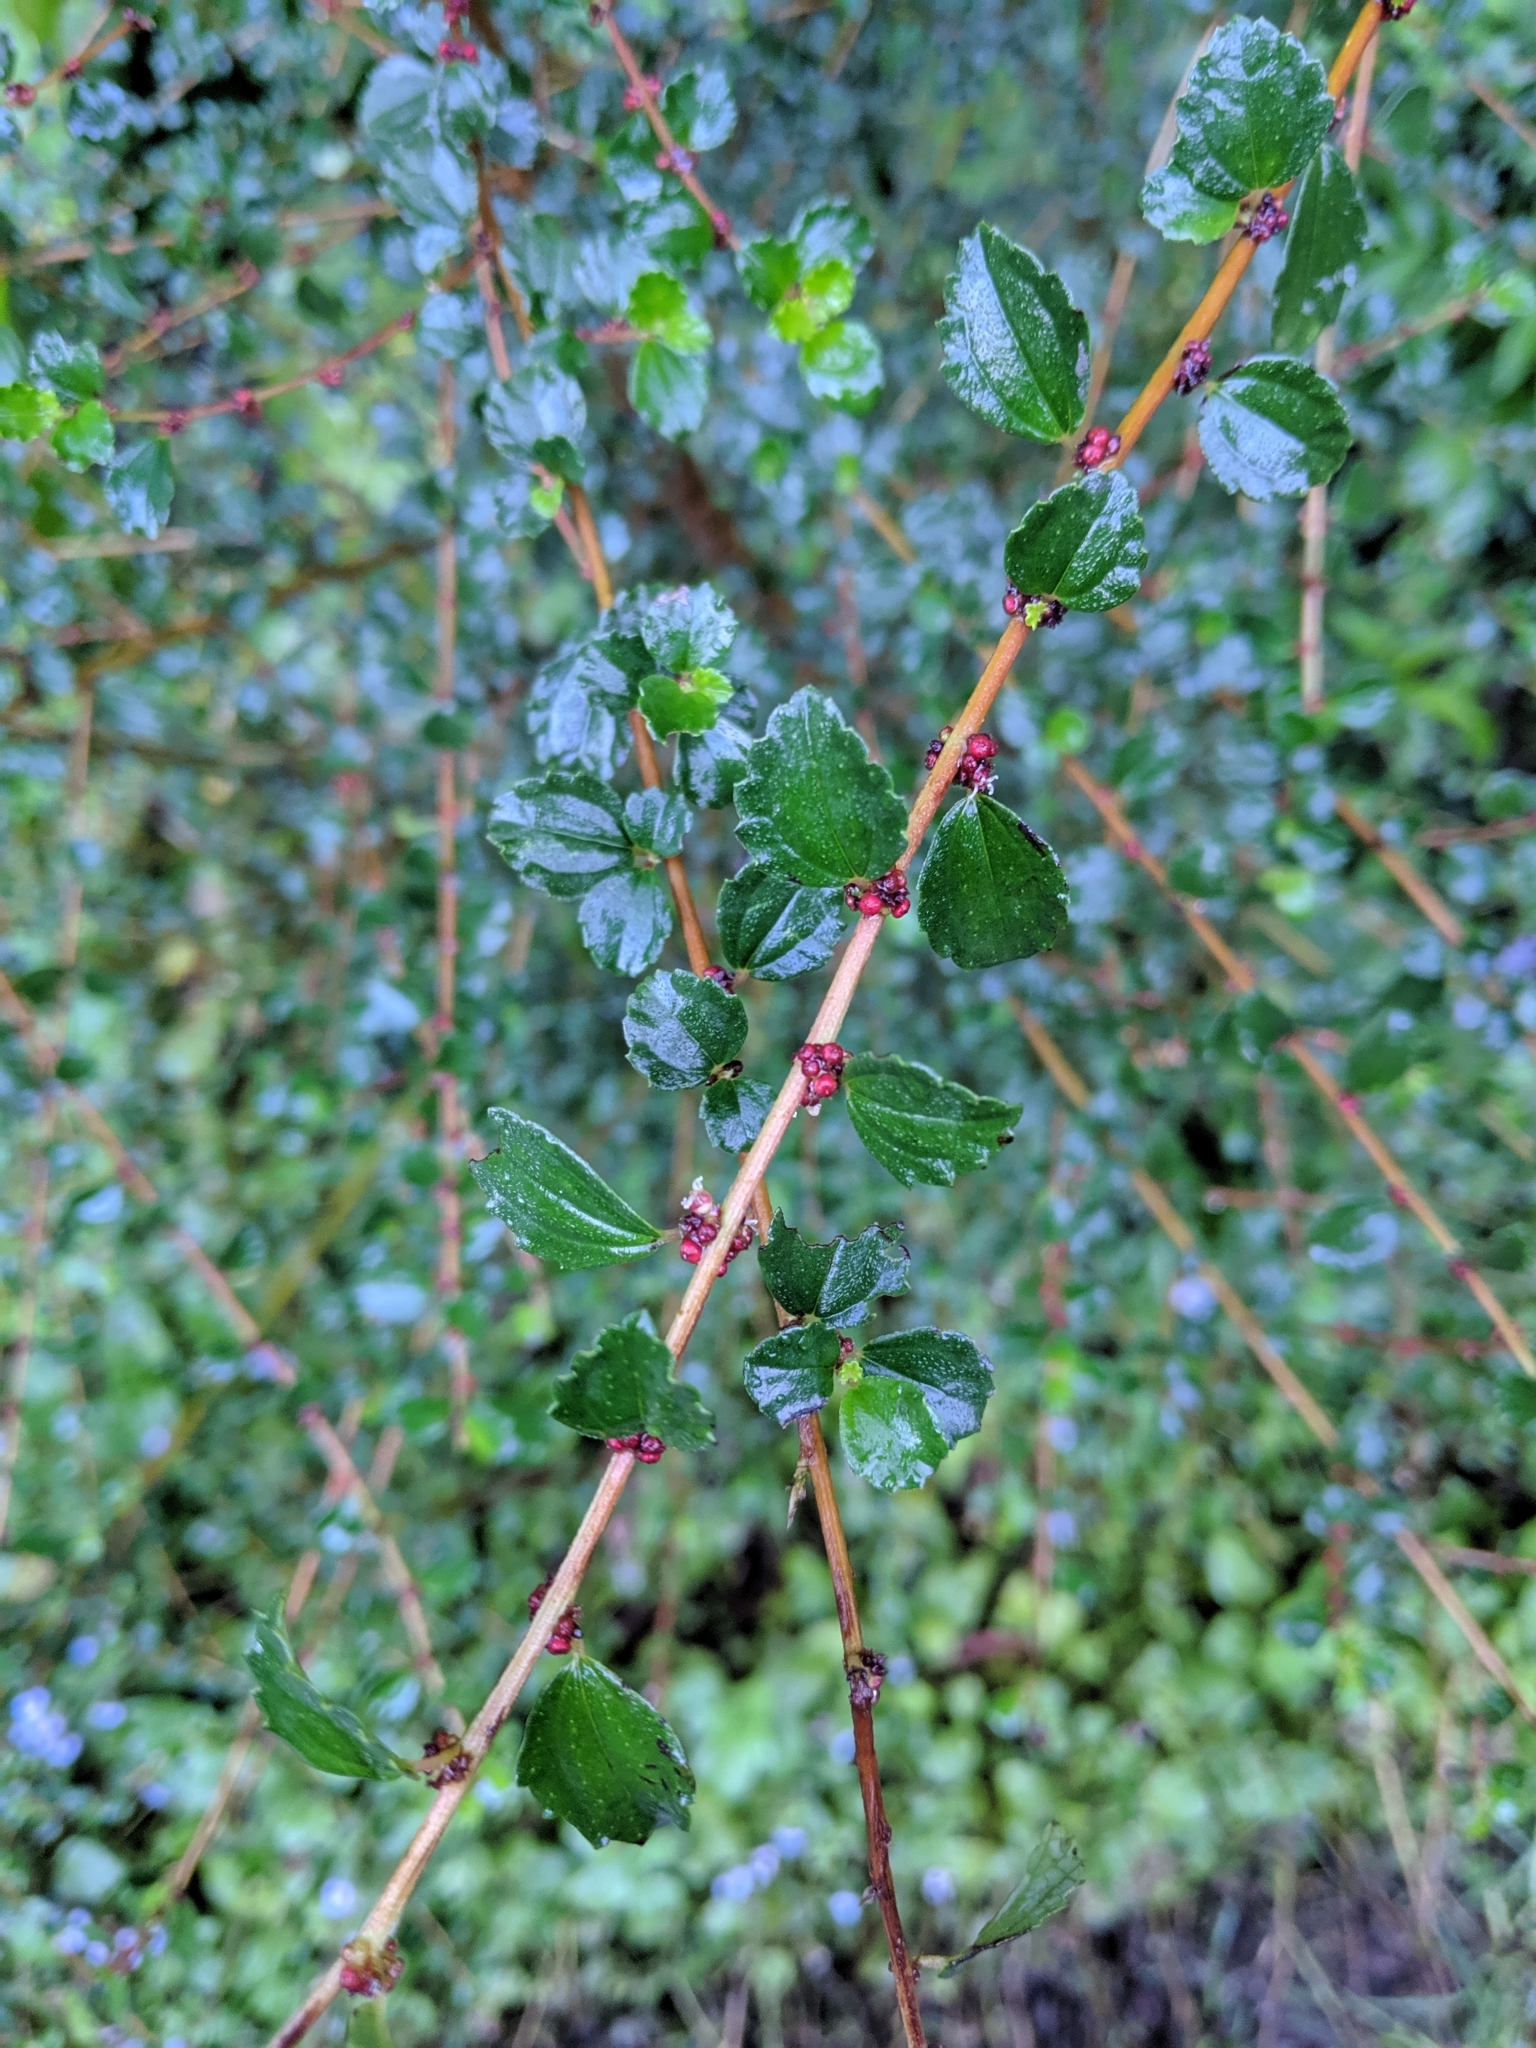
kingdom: Plantae
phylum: Tracheophyta
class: Magnoliopsida
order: Rosales
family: Urticaceae
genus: Pouzolzia
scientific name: Pouzolzia sanguinea
